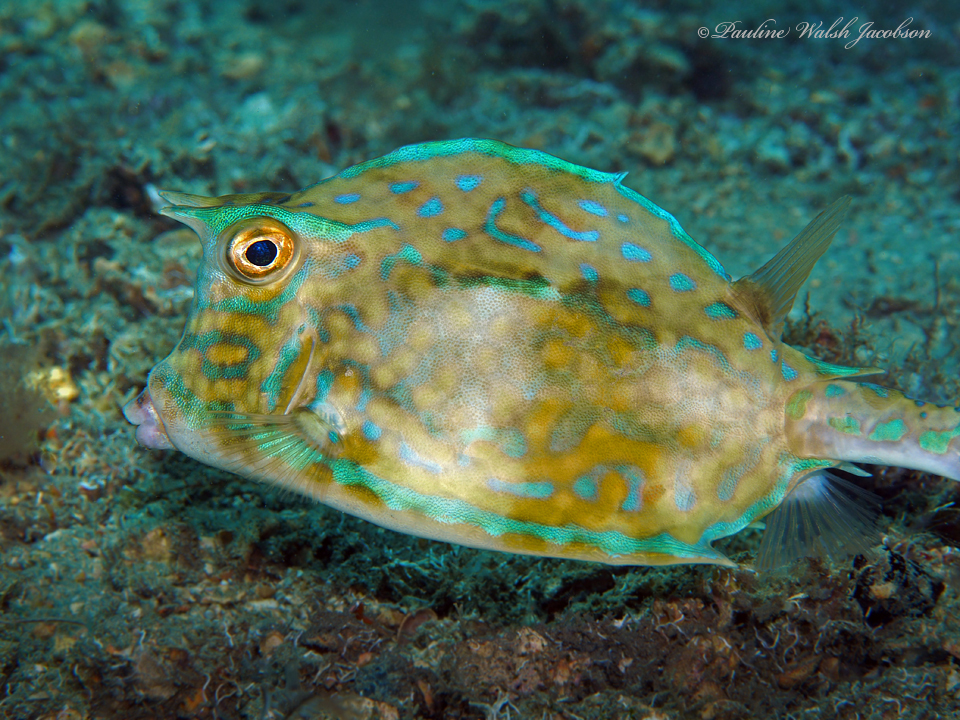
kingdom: Animalia
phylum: Chordata
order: Tetraodontiformes
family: Ostraciidae
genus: Acanthostracion
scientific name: Acanthostracion quadricornis
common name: Scrawled cowfish
